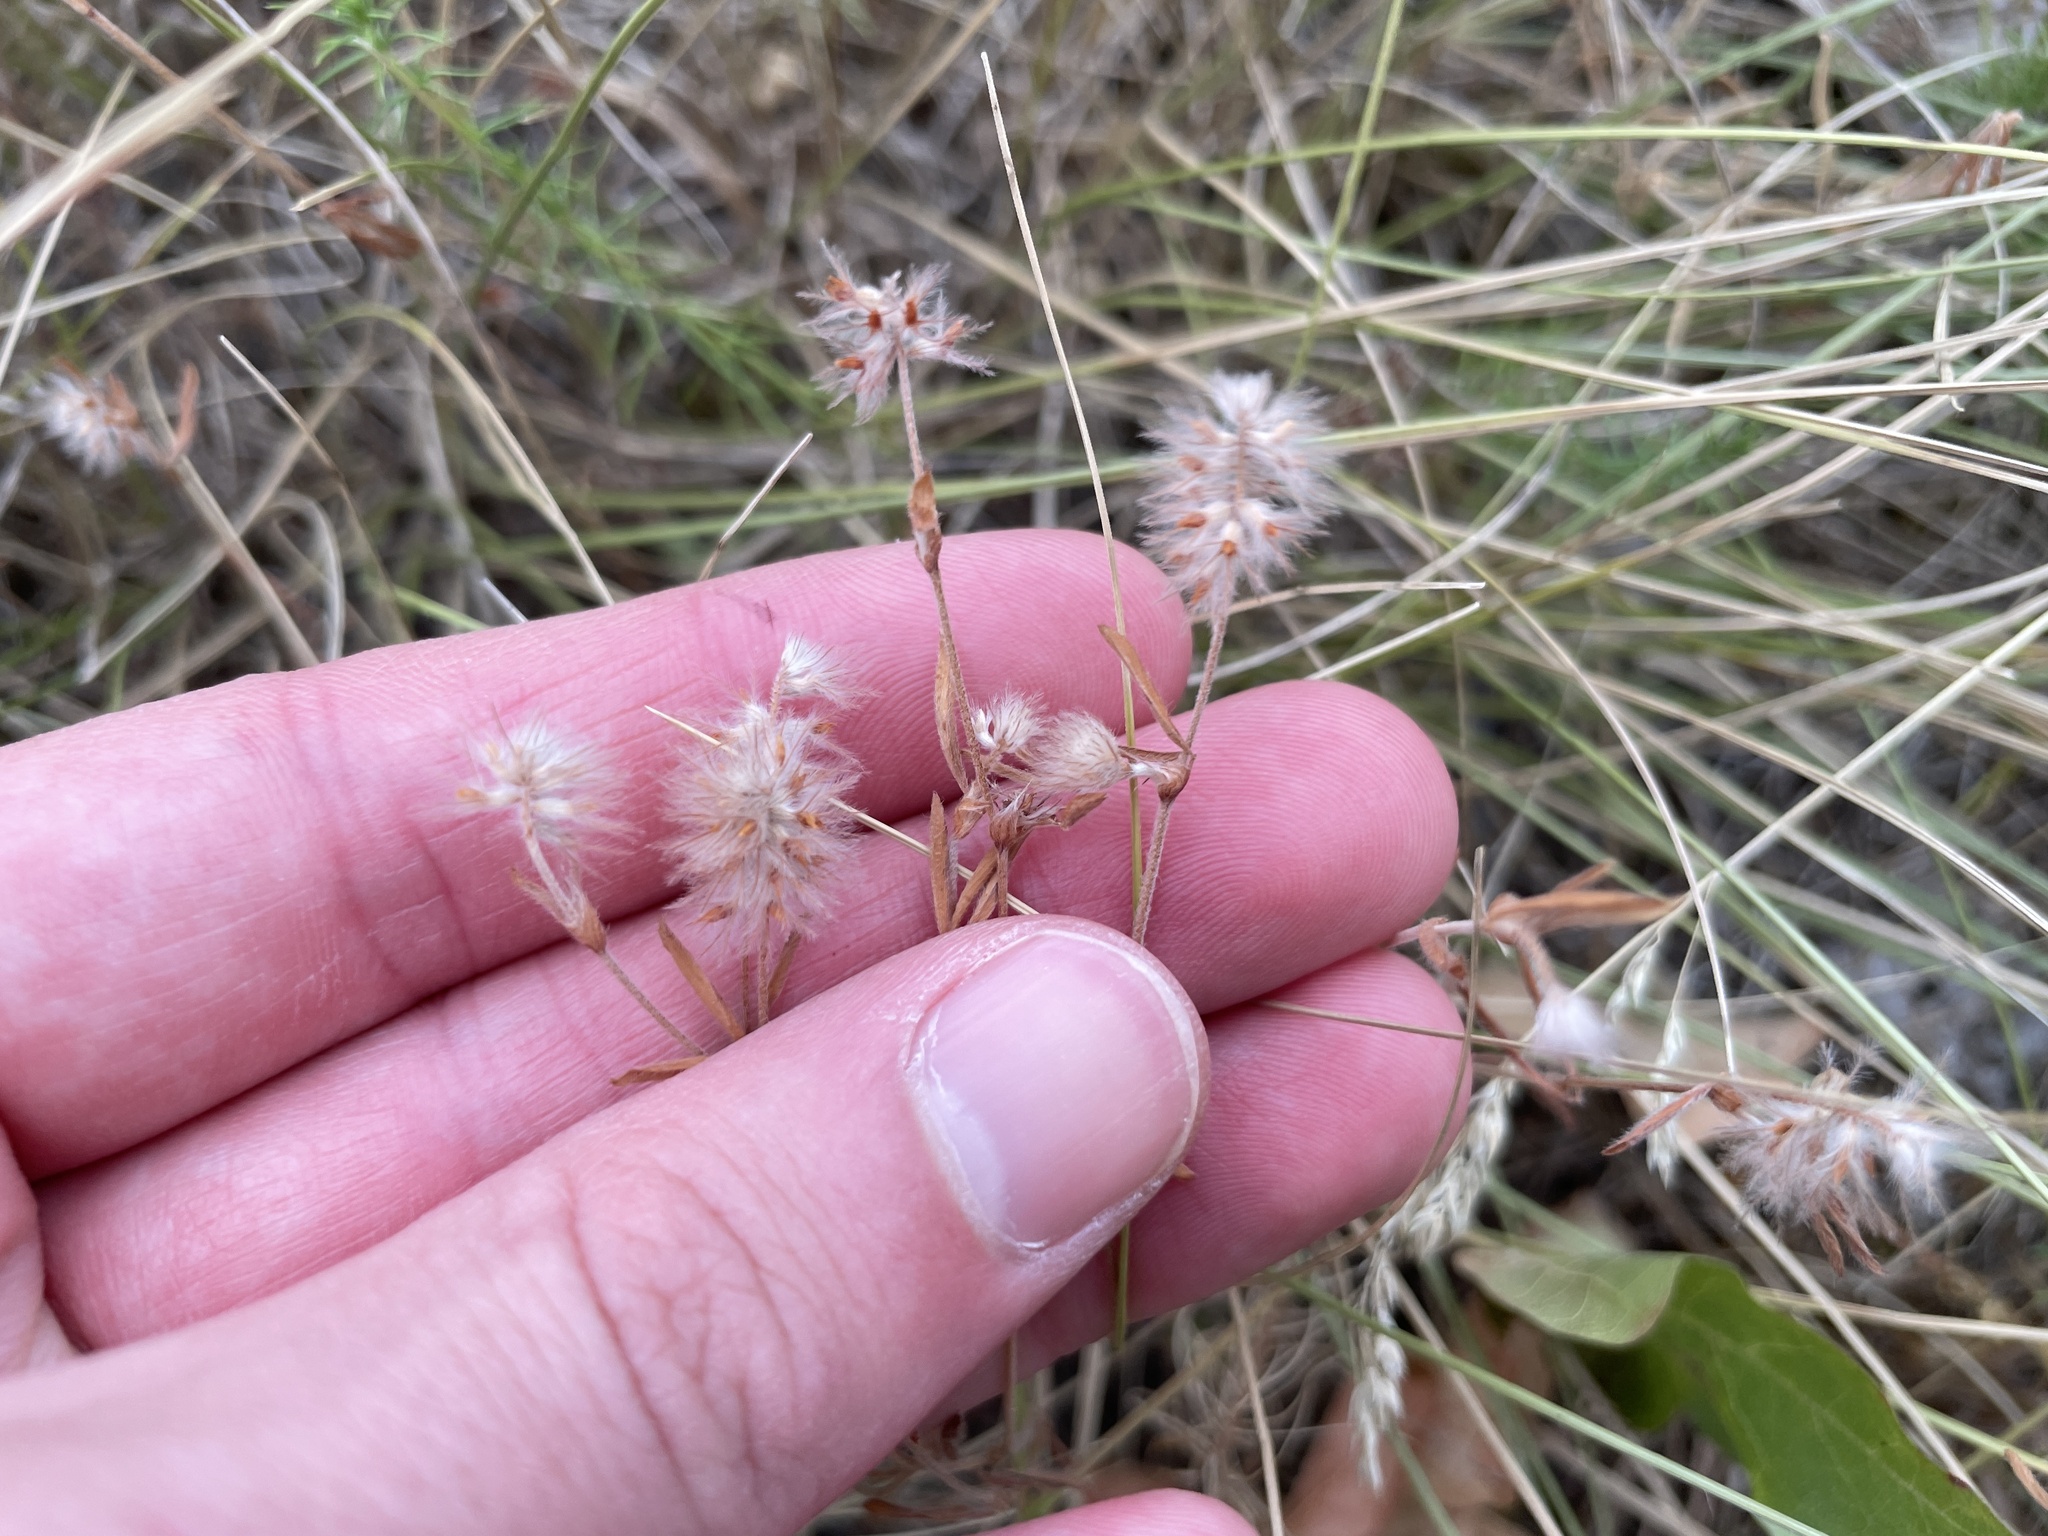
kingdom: Plantae
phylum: Tracheophyta
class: Magnoliopsida
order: Fabales
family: Fabaceae
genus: Trifolium
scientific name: Trifolium arvense
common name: Hare's-foot clover
